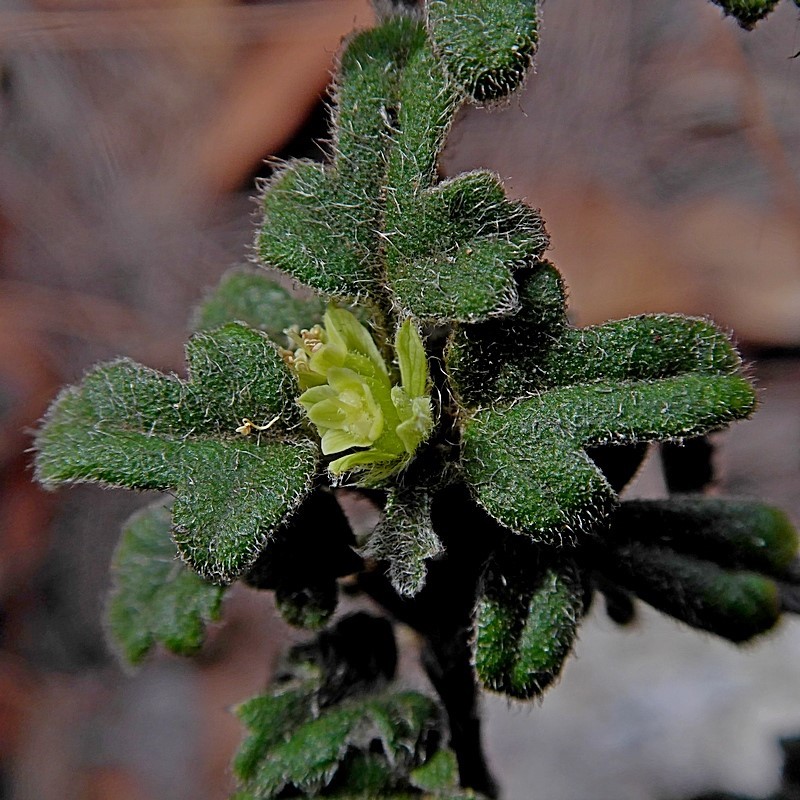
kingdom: Plantae
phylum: Tracheophyta
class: Magnoliopsida
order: Apiales
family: Apiaceae
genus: Xanthosia
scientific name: Xanthosia pilosa
